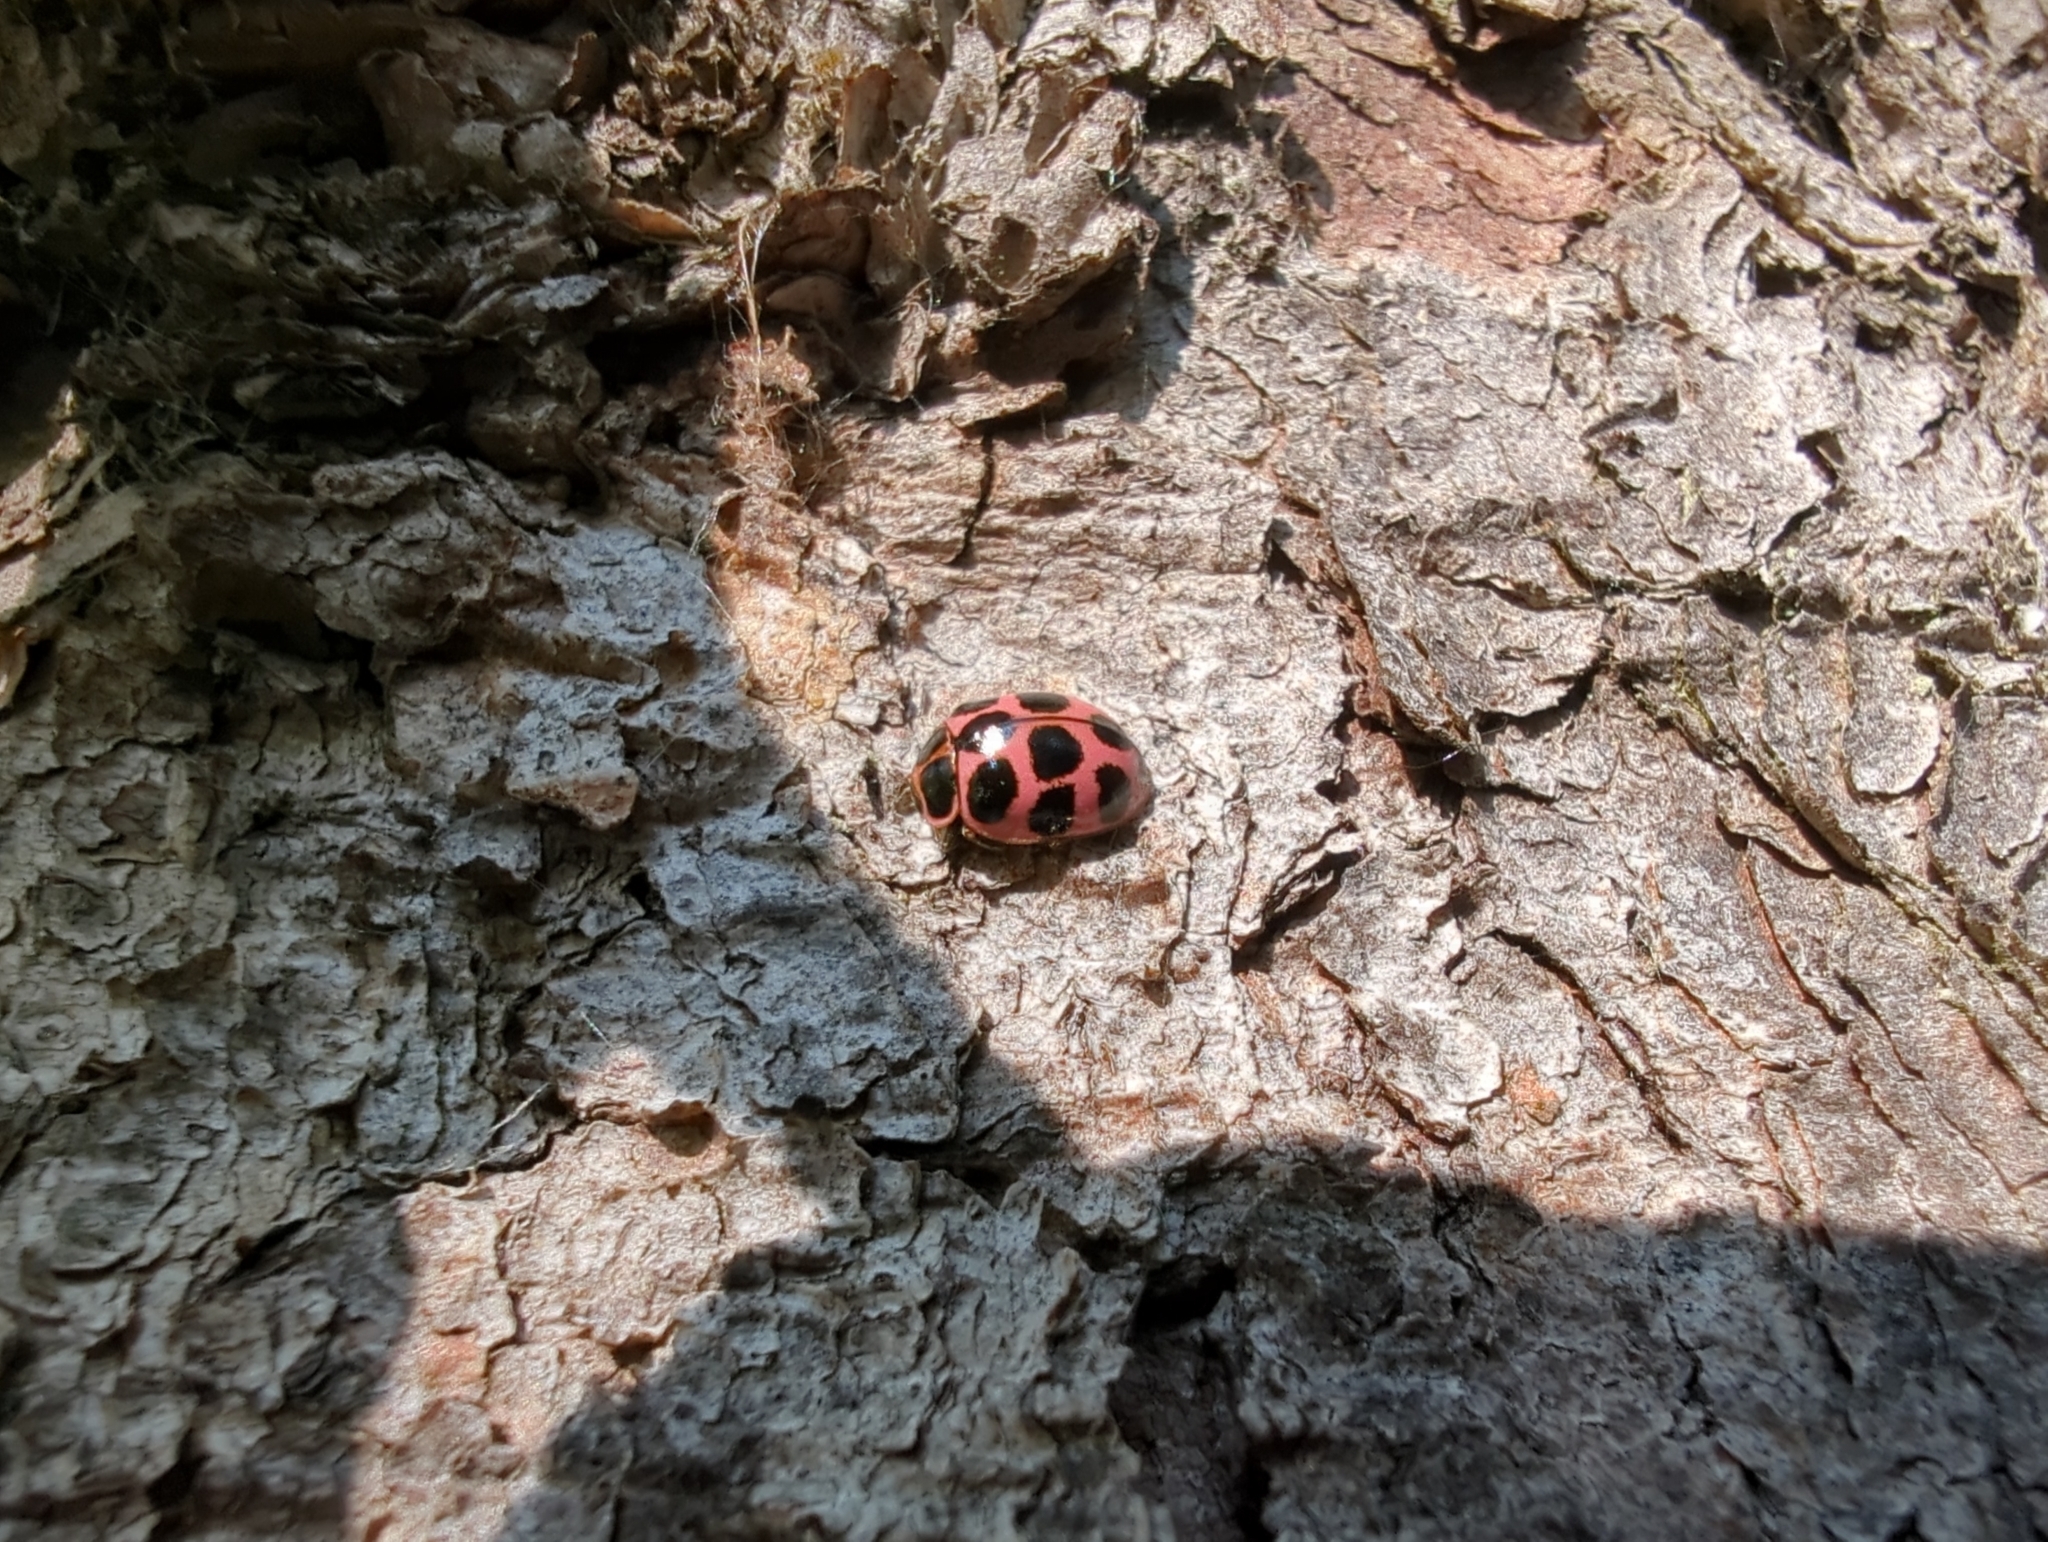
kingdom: Animalia
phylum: Arthropoda
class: Insecta
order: Coleoptera
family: Coccinellidae
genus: Calvia
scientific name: Calvia quatuordecimguttata
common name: Cream-spot ladybird
